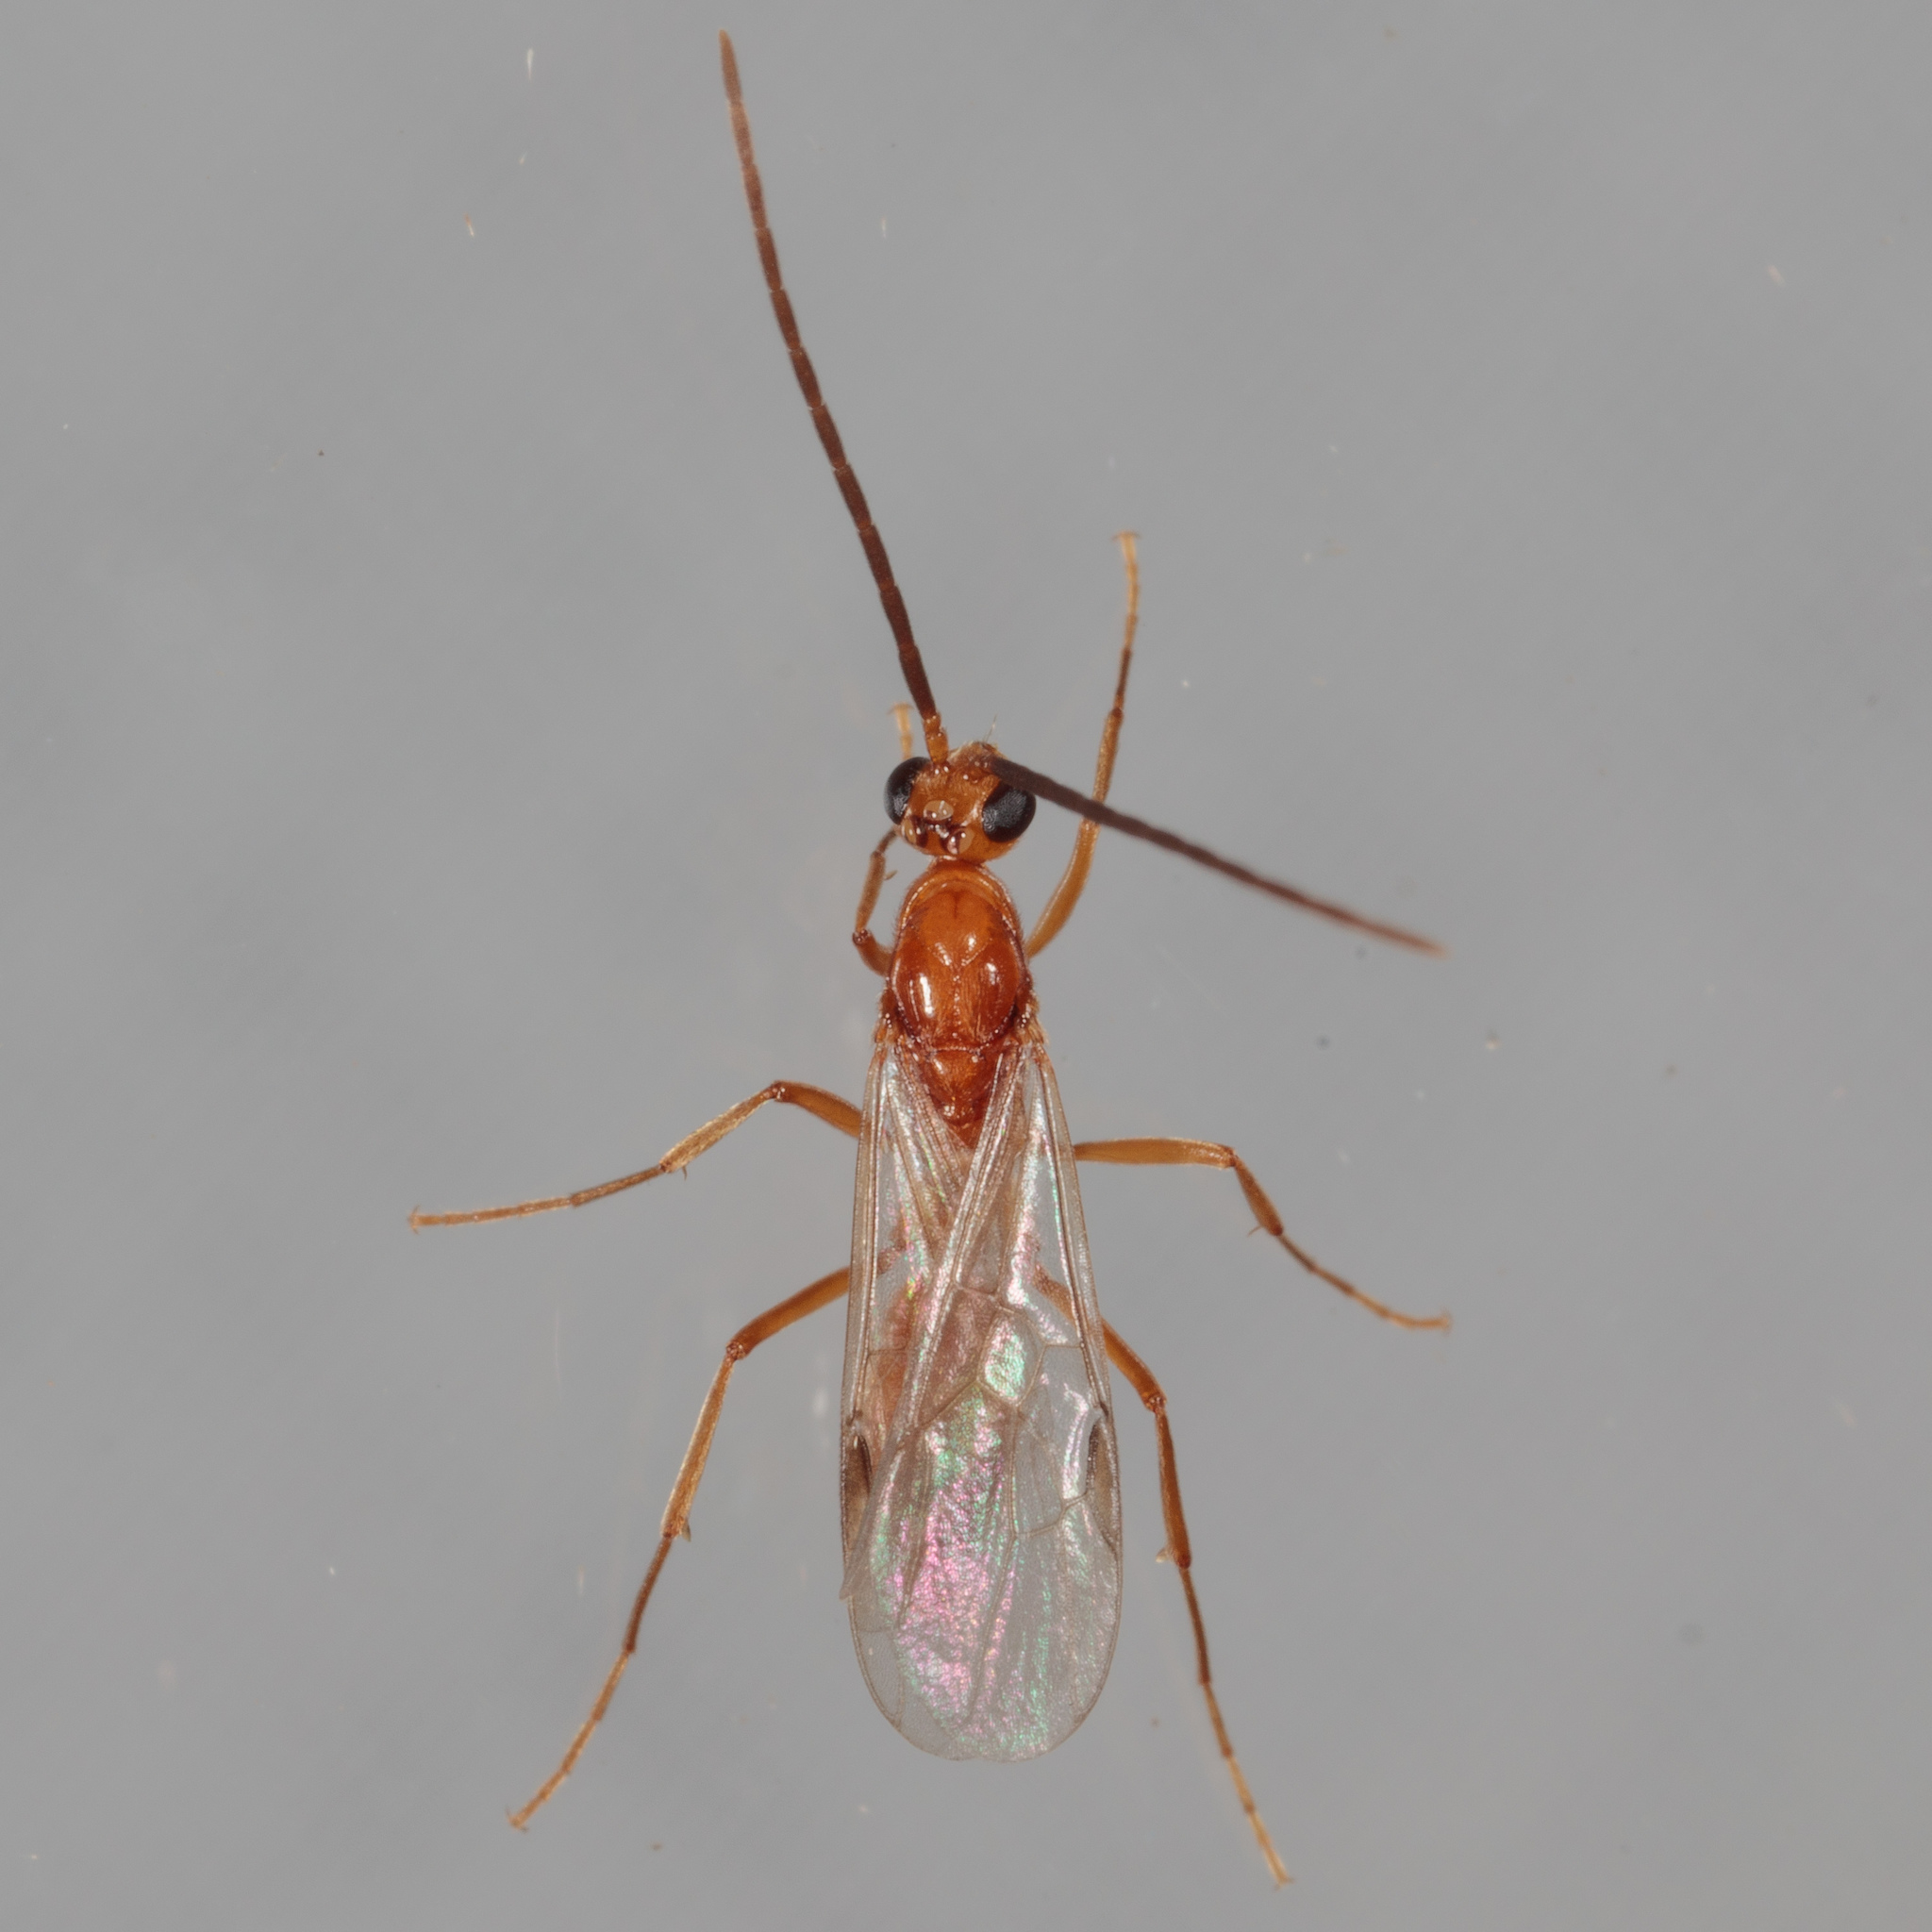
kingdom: Animalia
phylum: Arthropoda
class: Insecta
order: Hymenoptera
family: Formicidae
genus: Leptogenys
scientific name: Leptogenys elongata
